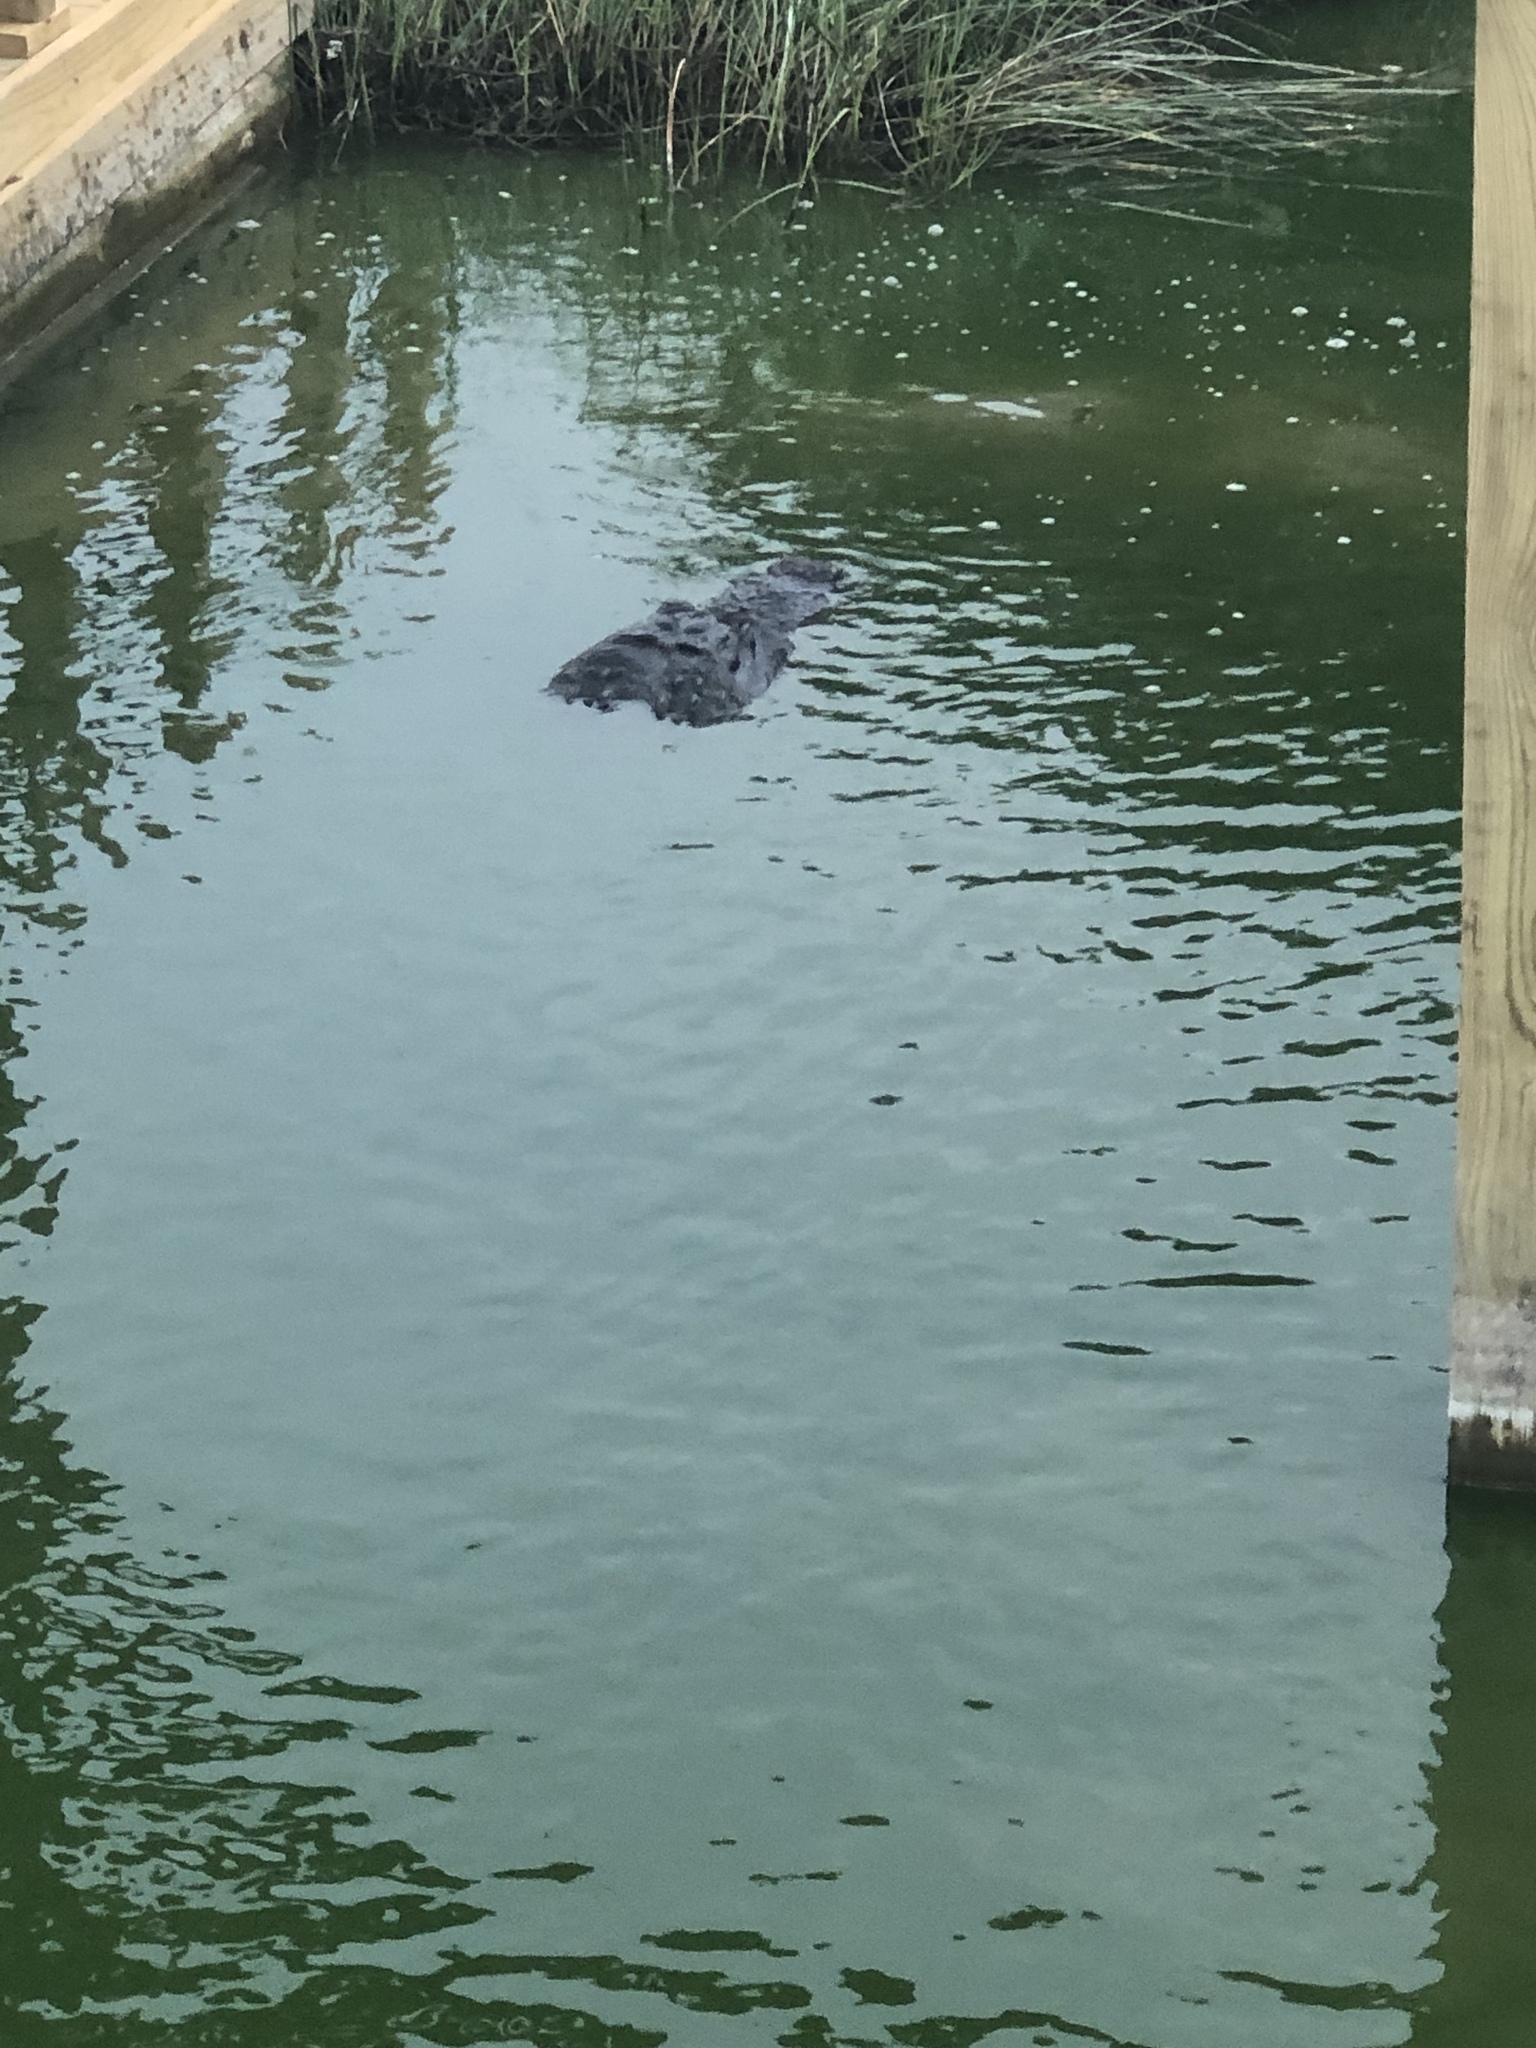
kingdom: Animalia
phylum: Chordata
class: Crocodylia
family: Alligatoridae
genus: Alligator
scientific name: Alligator mississippiensis
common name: American alligator
